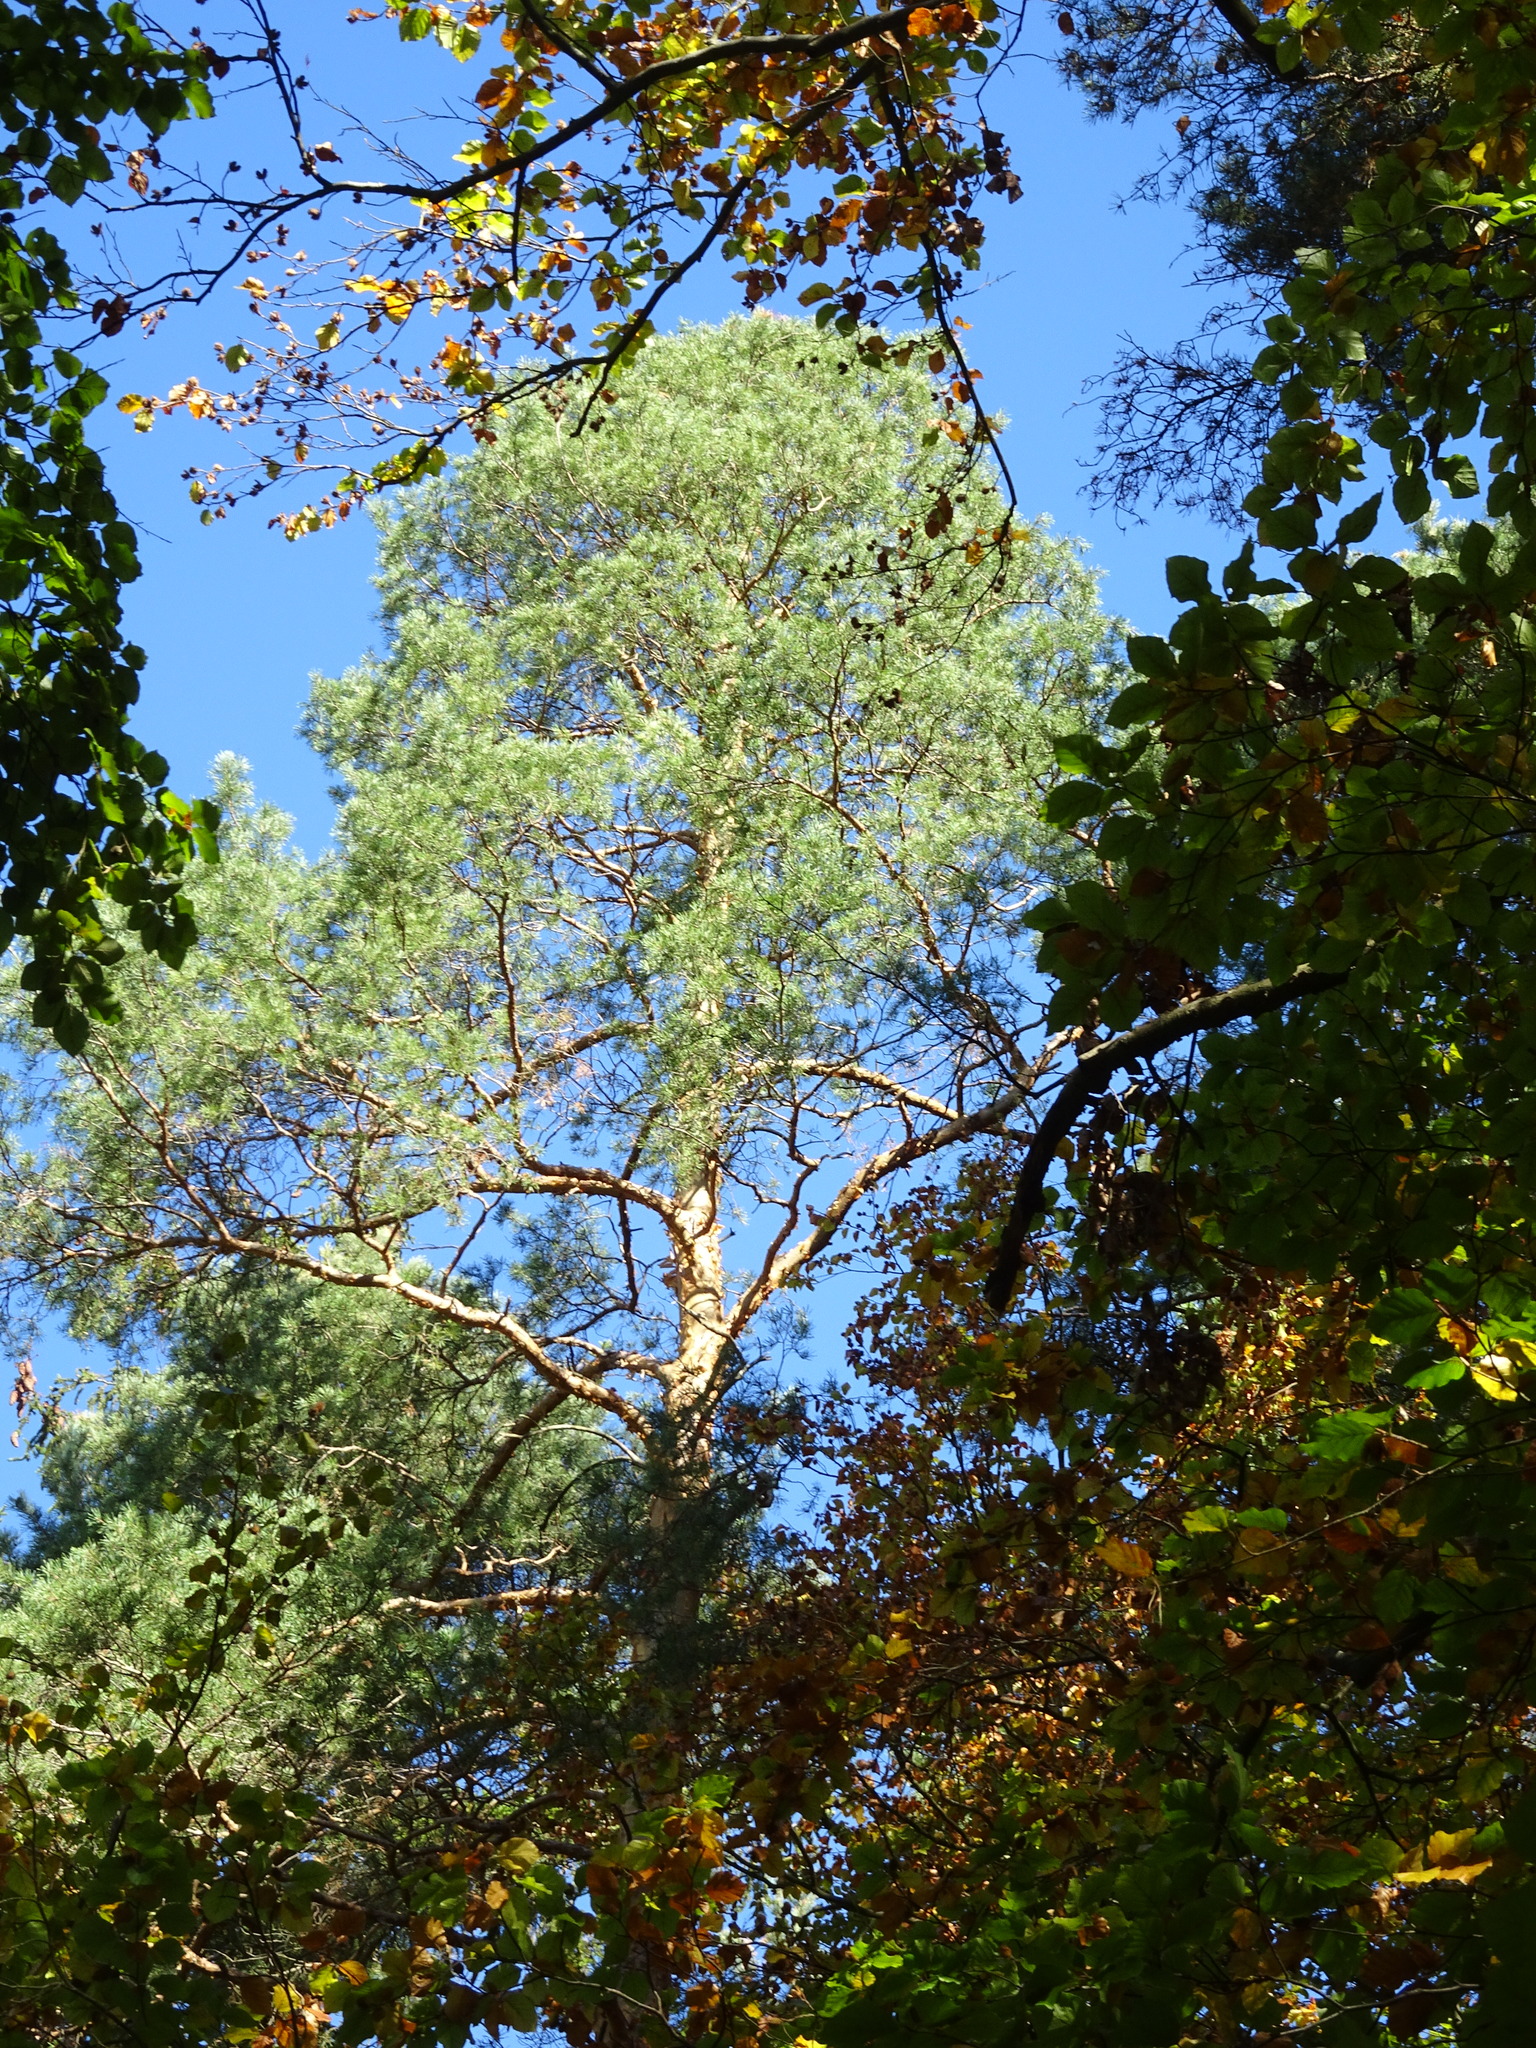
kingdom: Plantae
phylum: Tracheophyta
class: Pinopsida
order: Pinales
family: Pinaceae
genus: Pinus
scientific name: Pinus sylvestris
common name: Scots pine
